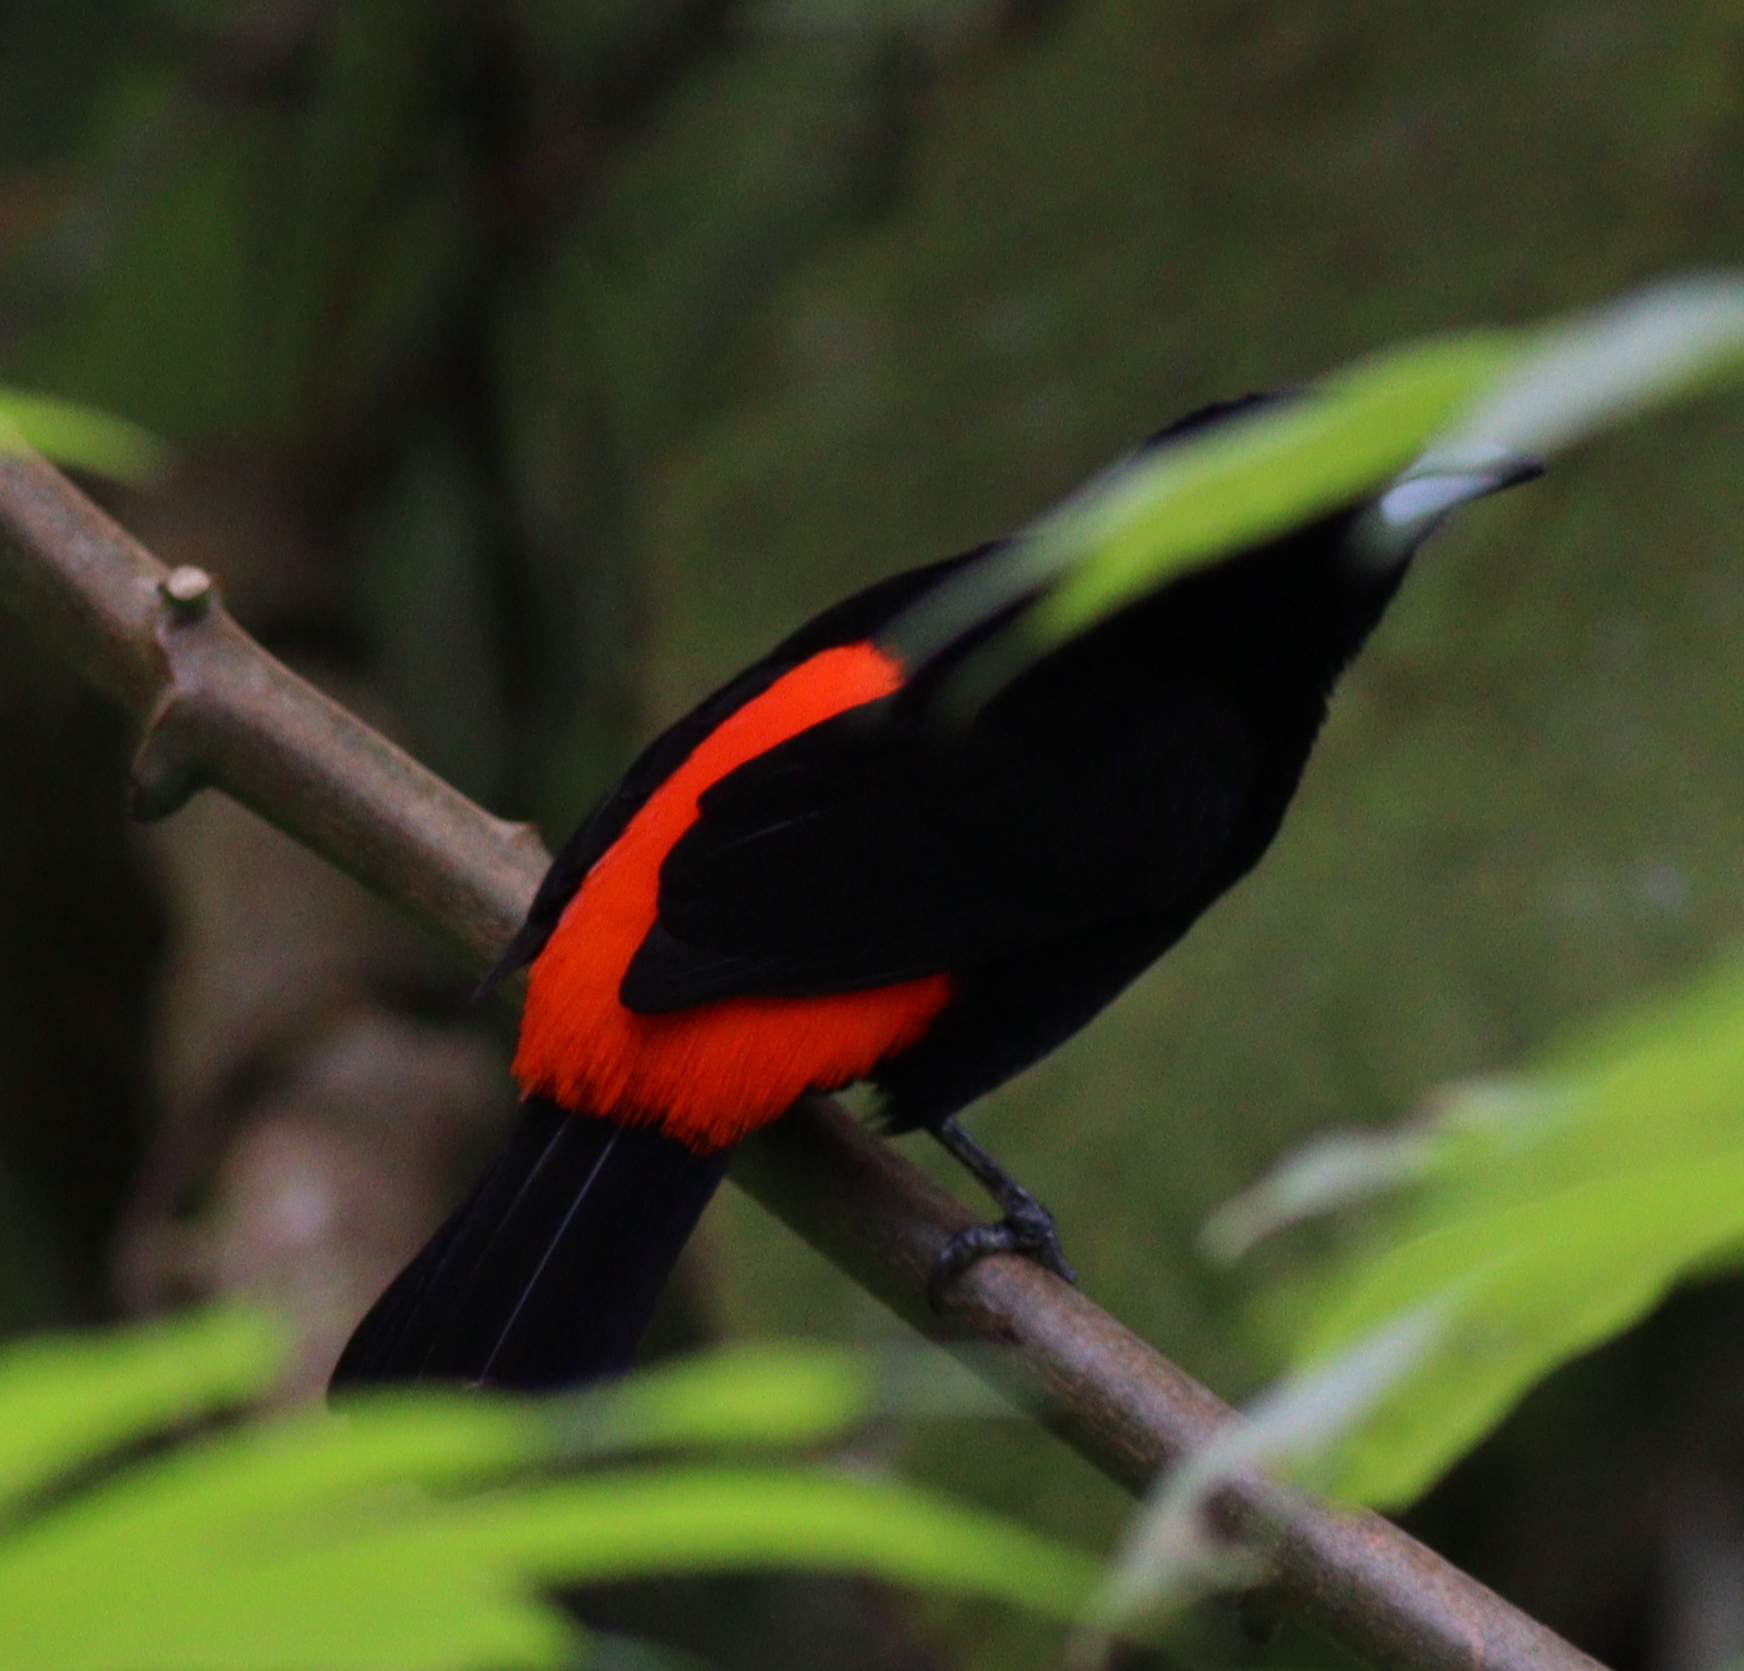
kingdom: Animalia
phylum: Chordata
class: Aves
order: Passeriformes
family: Thraupidae
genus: Ramphocelus
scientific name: Ramphocelus passerinii
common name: Passerini's tanager
